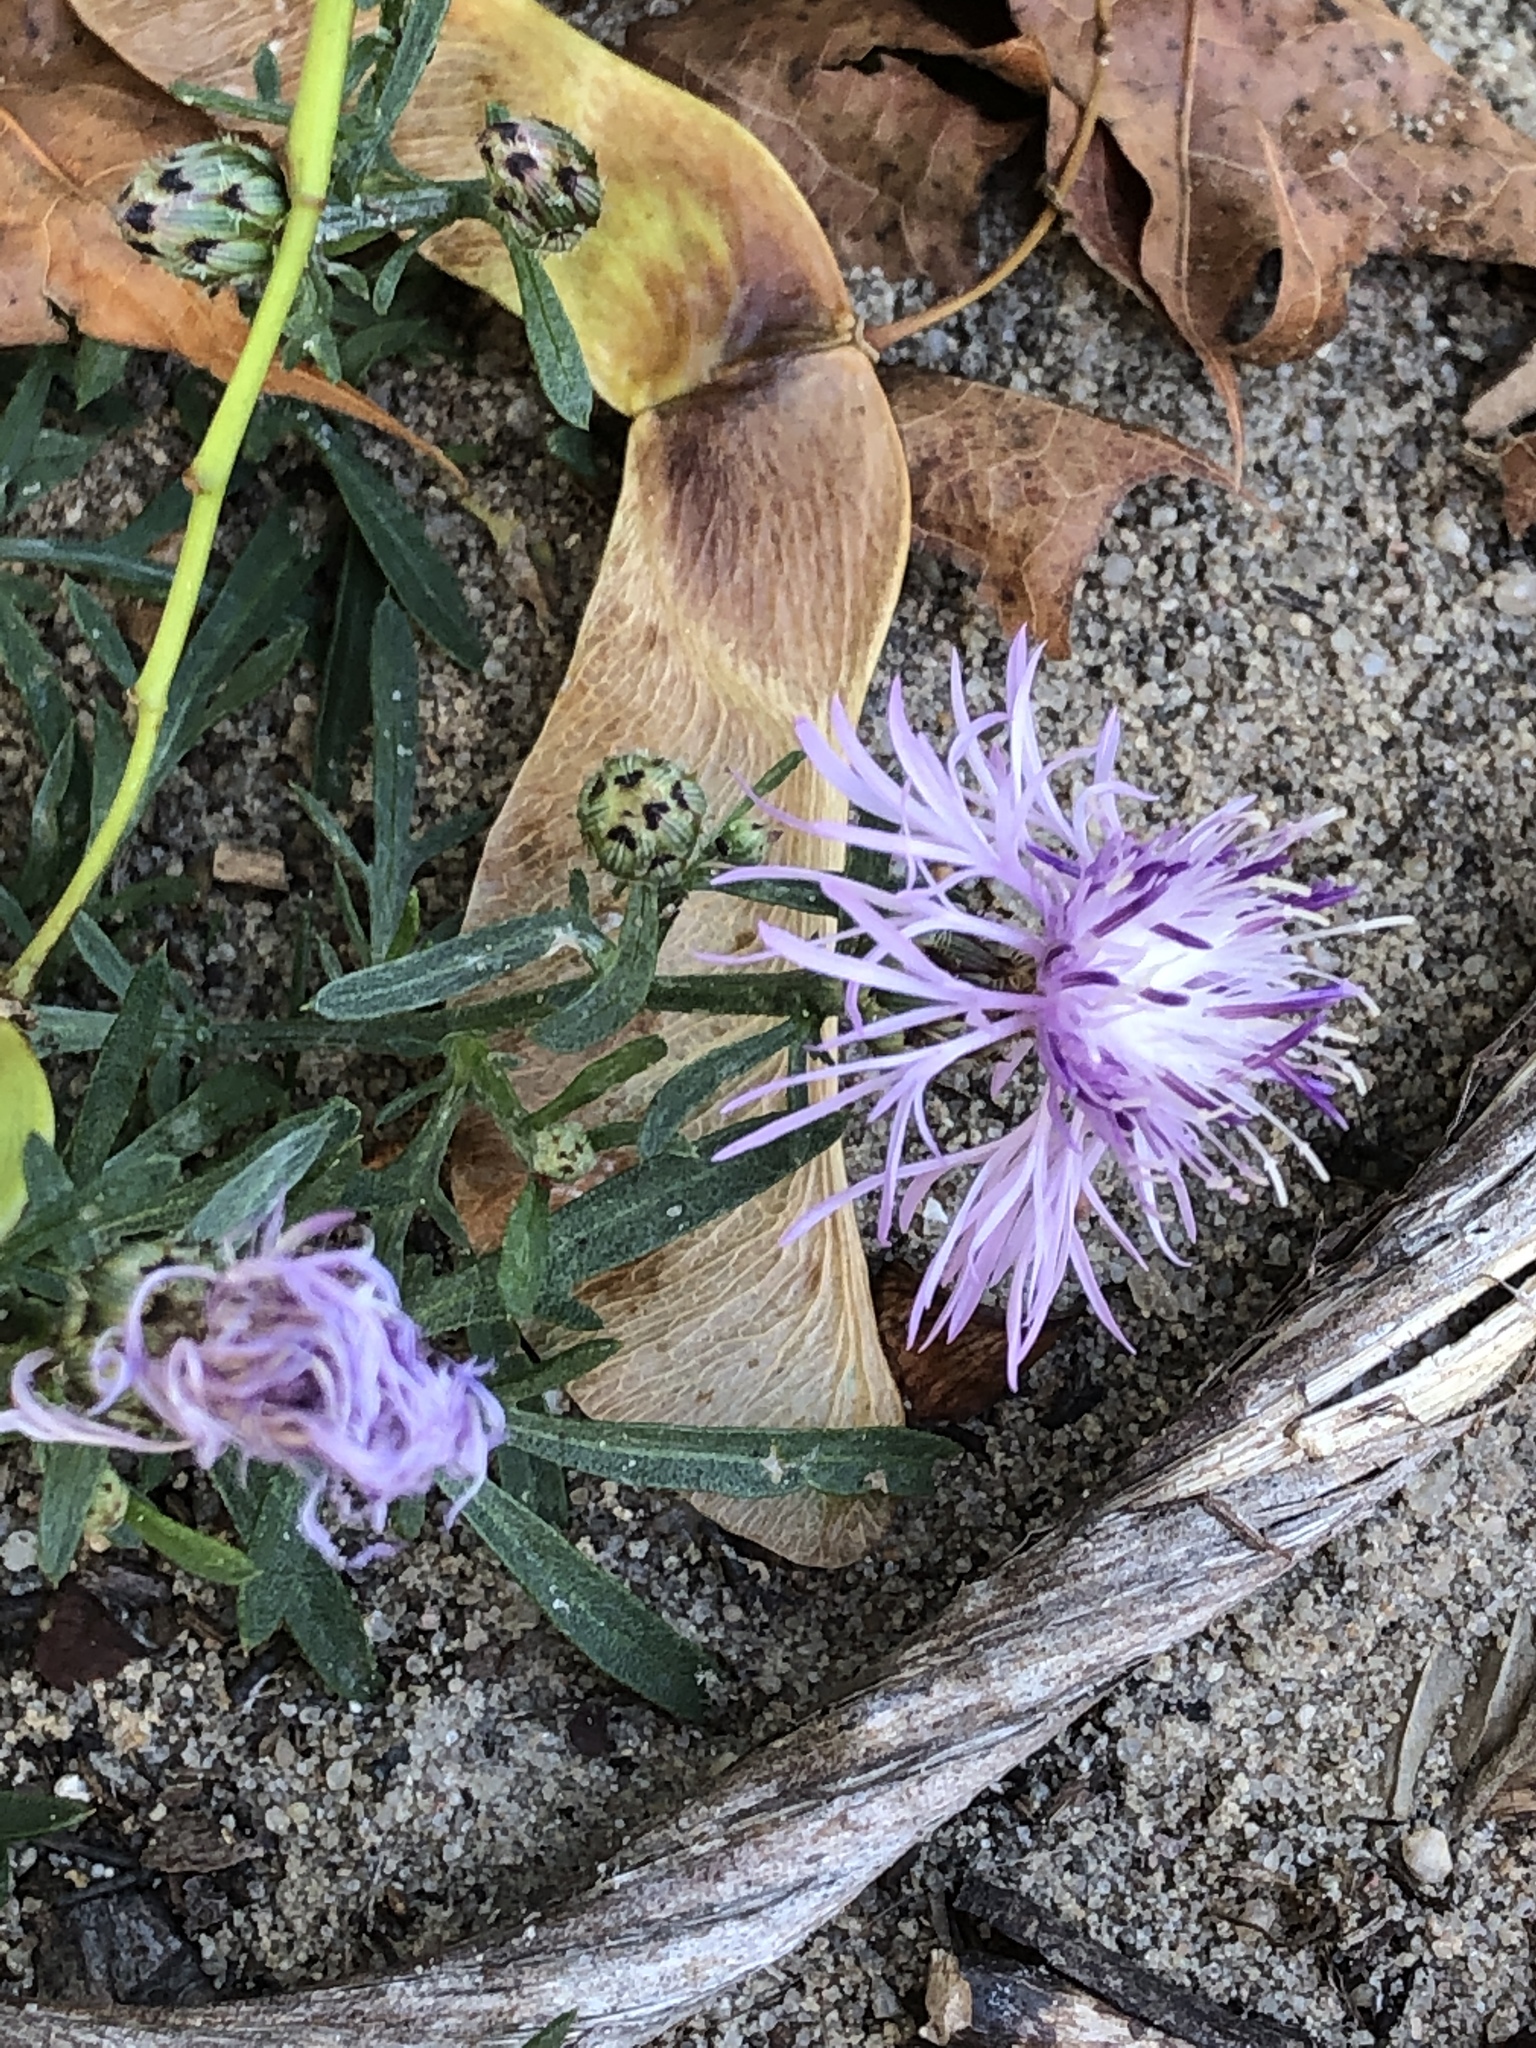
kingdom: Plantae
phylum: Tracheophyta
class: Magnoliopsida
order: Asterales
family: Asteraceae
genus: Centaurea
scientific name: Centaurea stoebe
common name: Spotted knapweed
